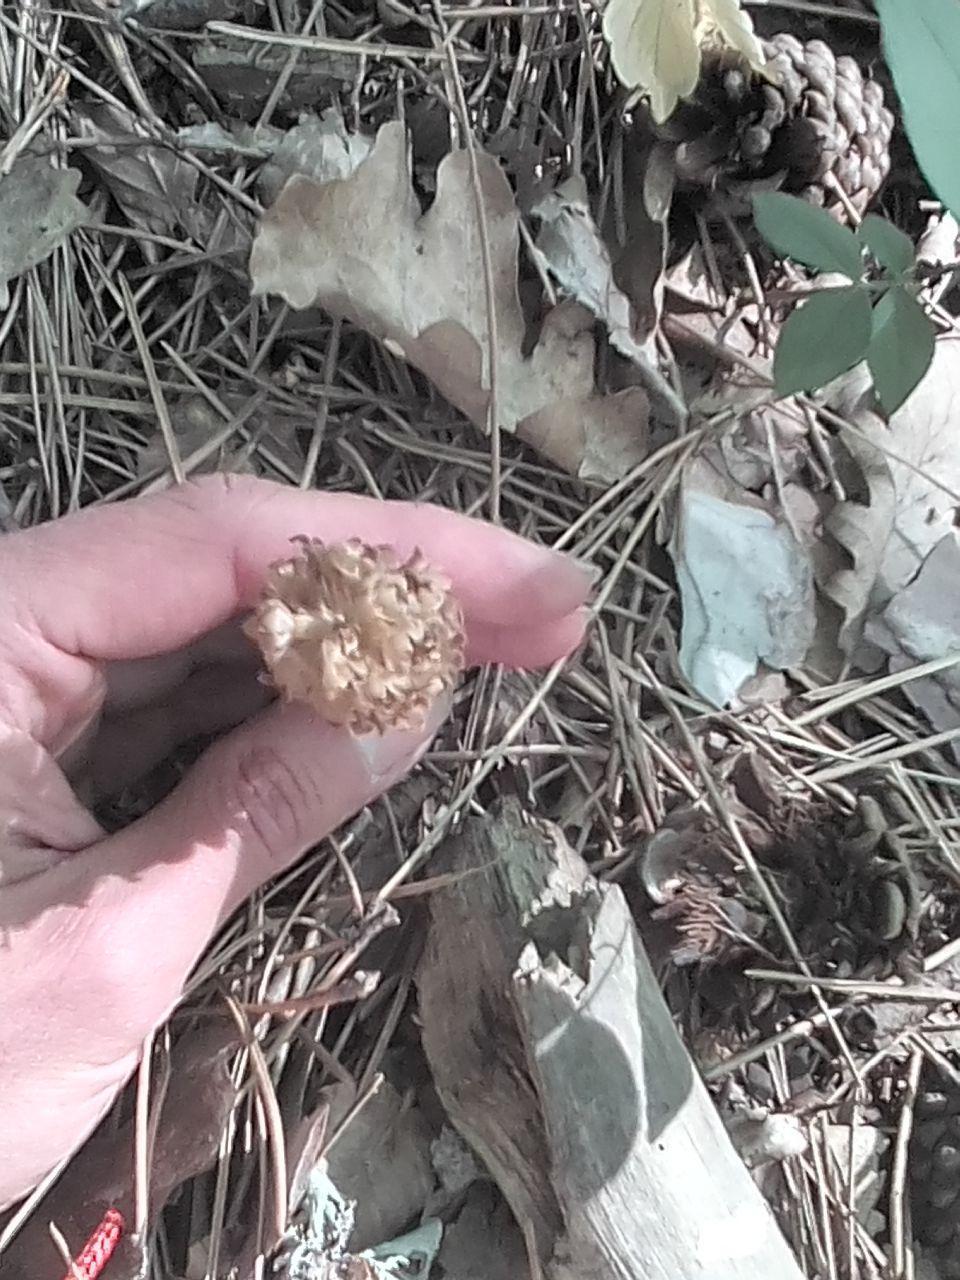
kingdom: Plantae
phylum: Tracheophyta
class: Liliopsida
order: Asparagales
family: Orchidaceae
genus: Neottia
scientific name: Neottia nidus-avis
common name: Bird's-nest orchid
